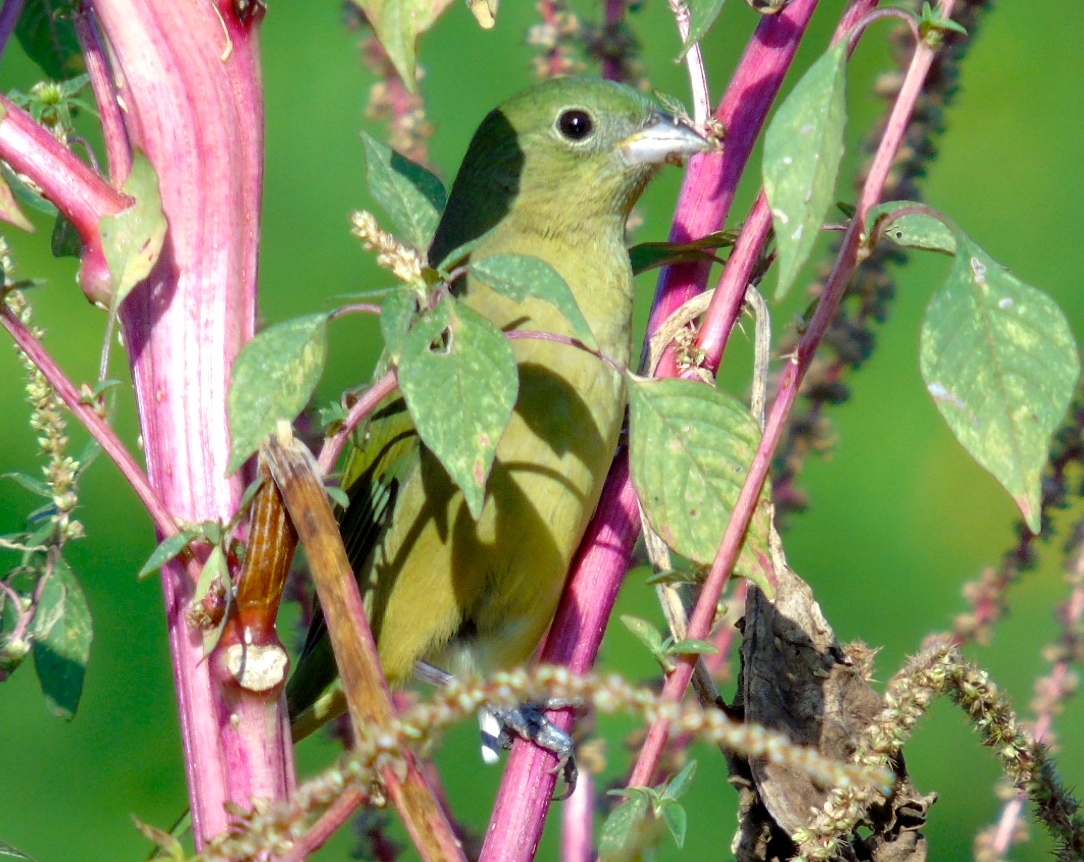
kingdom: Animalia
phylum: Chordata
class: Aves
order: Passeriformes
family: Cardinalidae
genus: Passerina
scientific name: Passerina ciris
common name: Painted bunting
